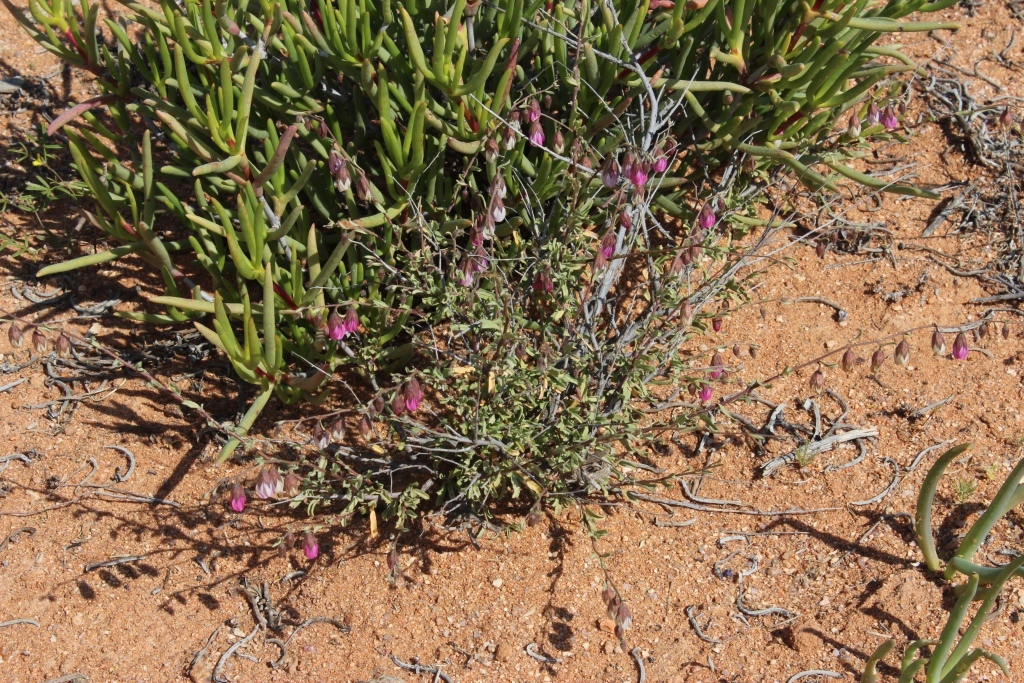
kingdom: Plantae
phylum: Tracheophyta
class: Magnoliopsida
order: Malvales
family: Malvaceae
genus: Hermannia
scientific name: Hermannia trifurca
